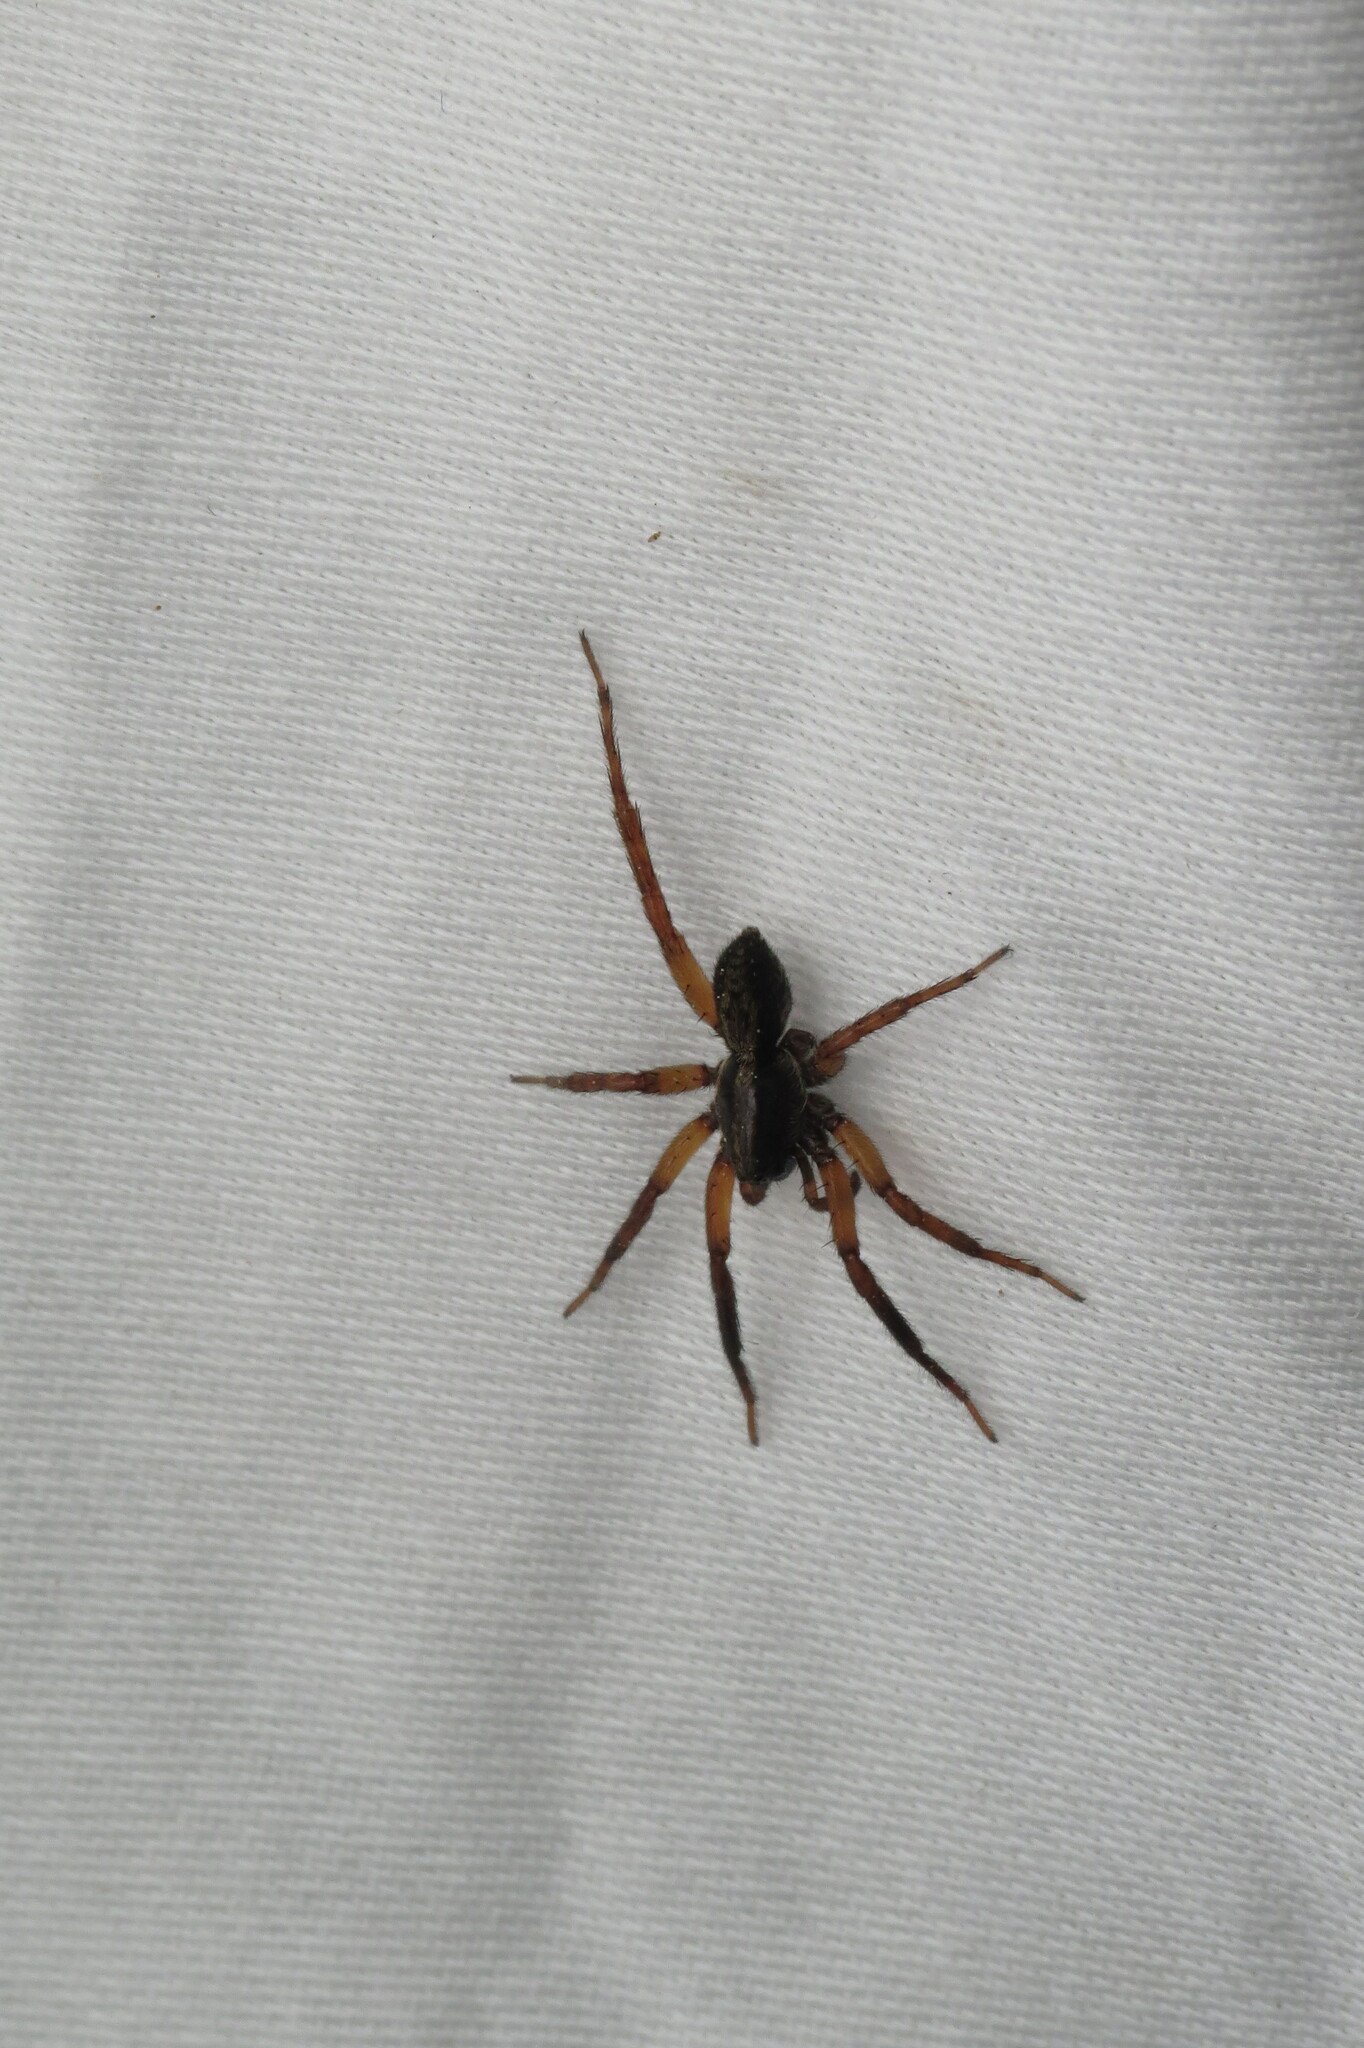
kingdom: Animalia
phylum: Arthropoda
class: Arachnida
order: Araneae
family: Lycosidae
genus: Trochosa
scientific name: Trochosa sepulchralis
